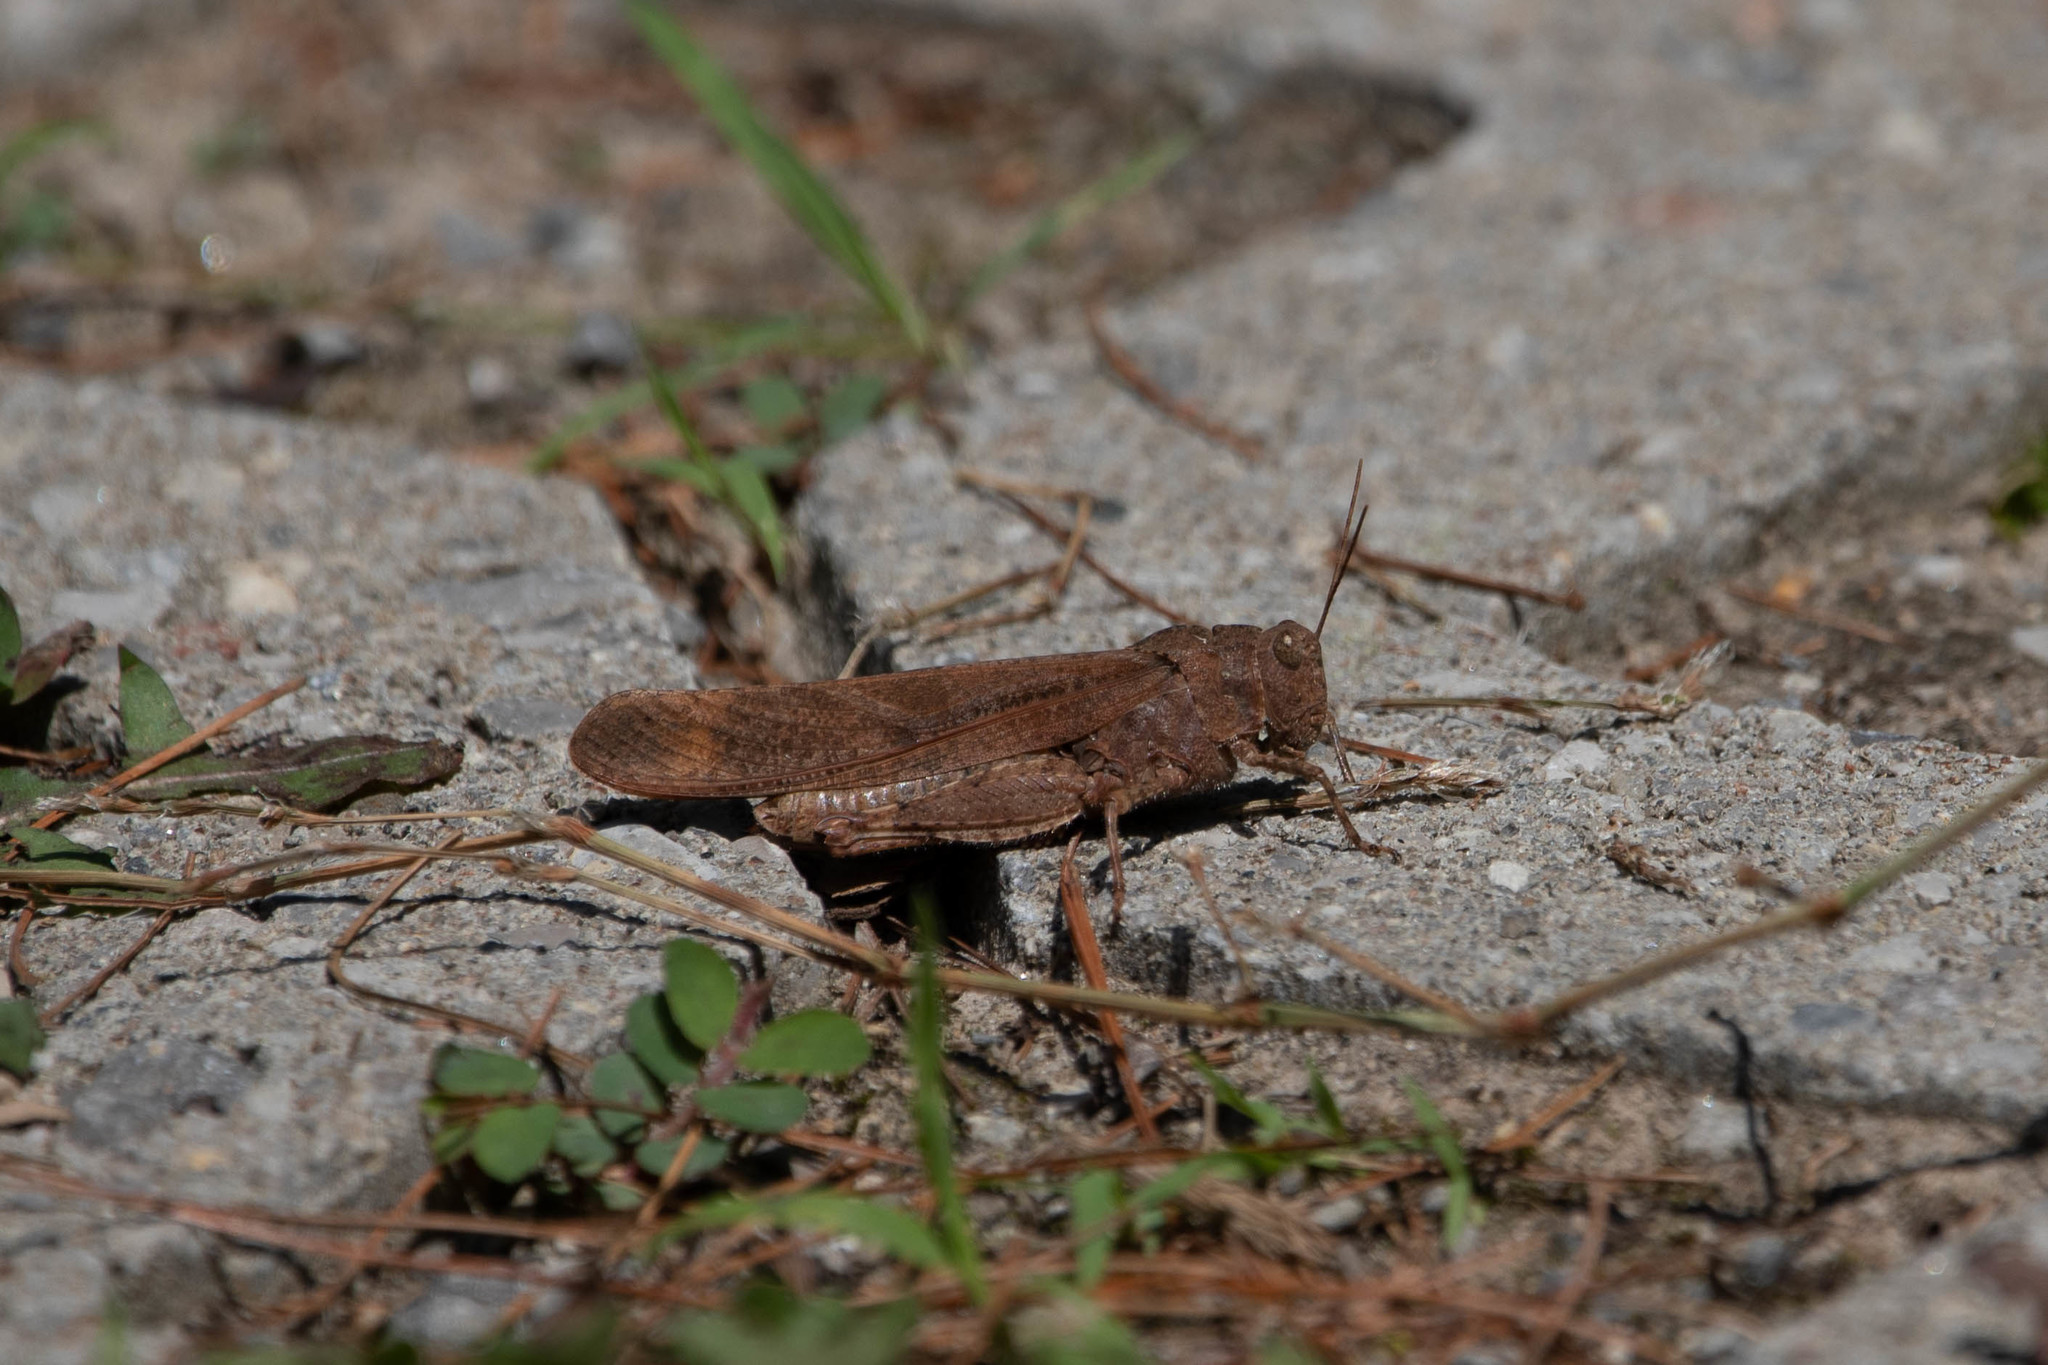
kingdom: Animalia
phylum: Arthropoda
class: Insecta
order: Orthoptera
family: Acrididae
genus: Dissosteira
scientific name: Dissosteira carolina
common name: Carolina grasshopper
